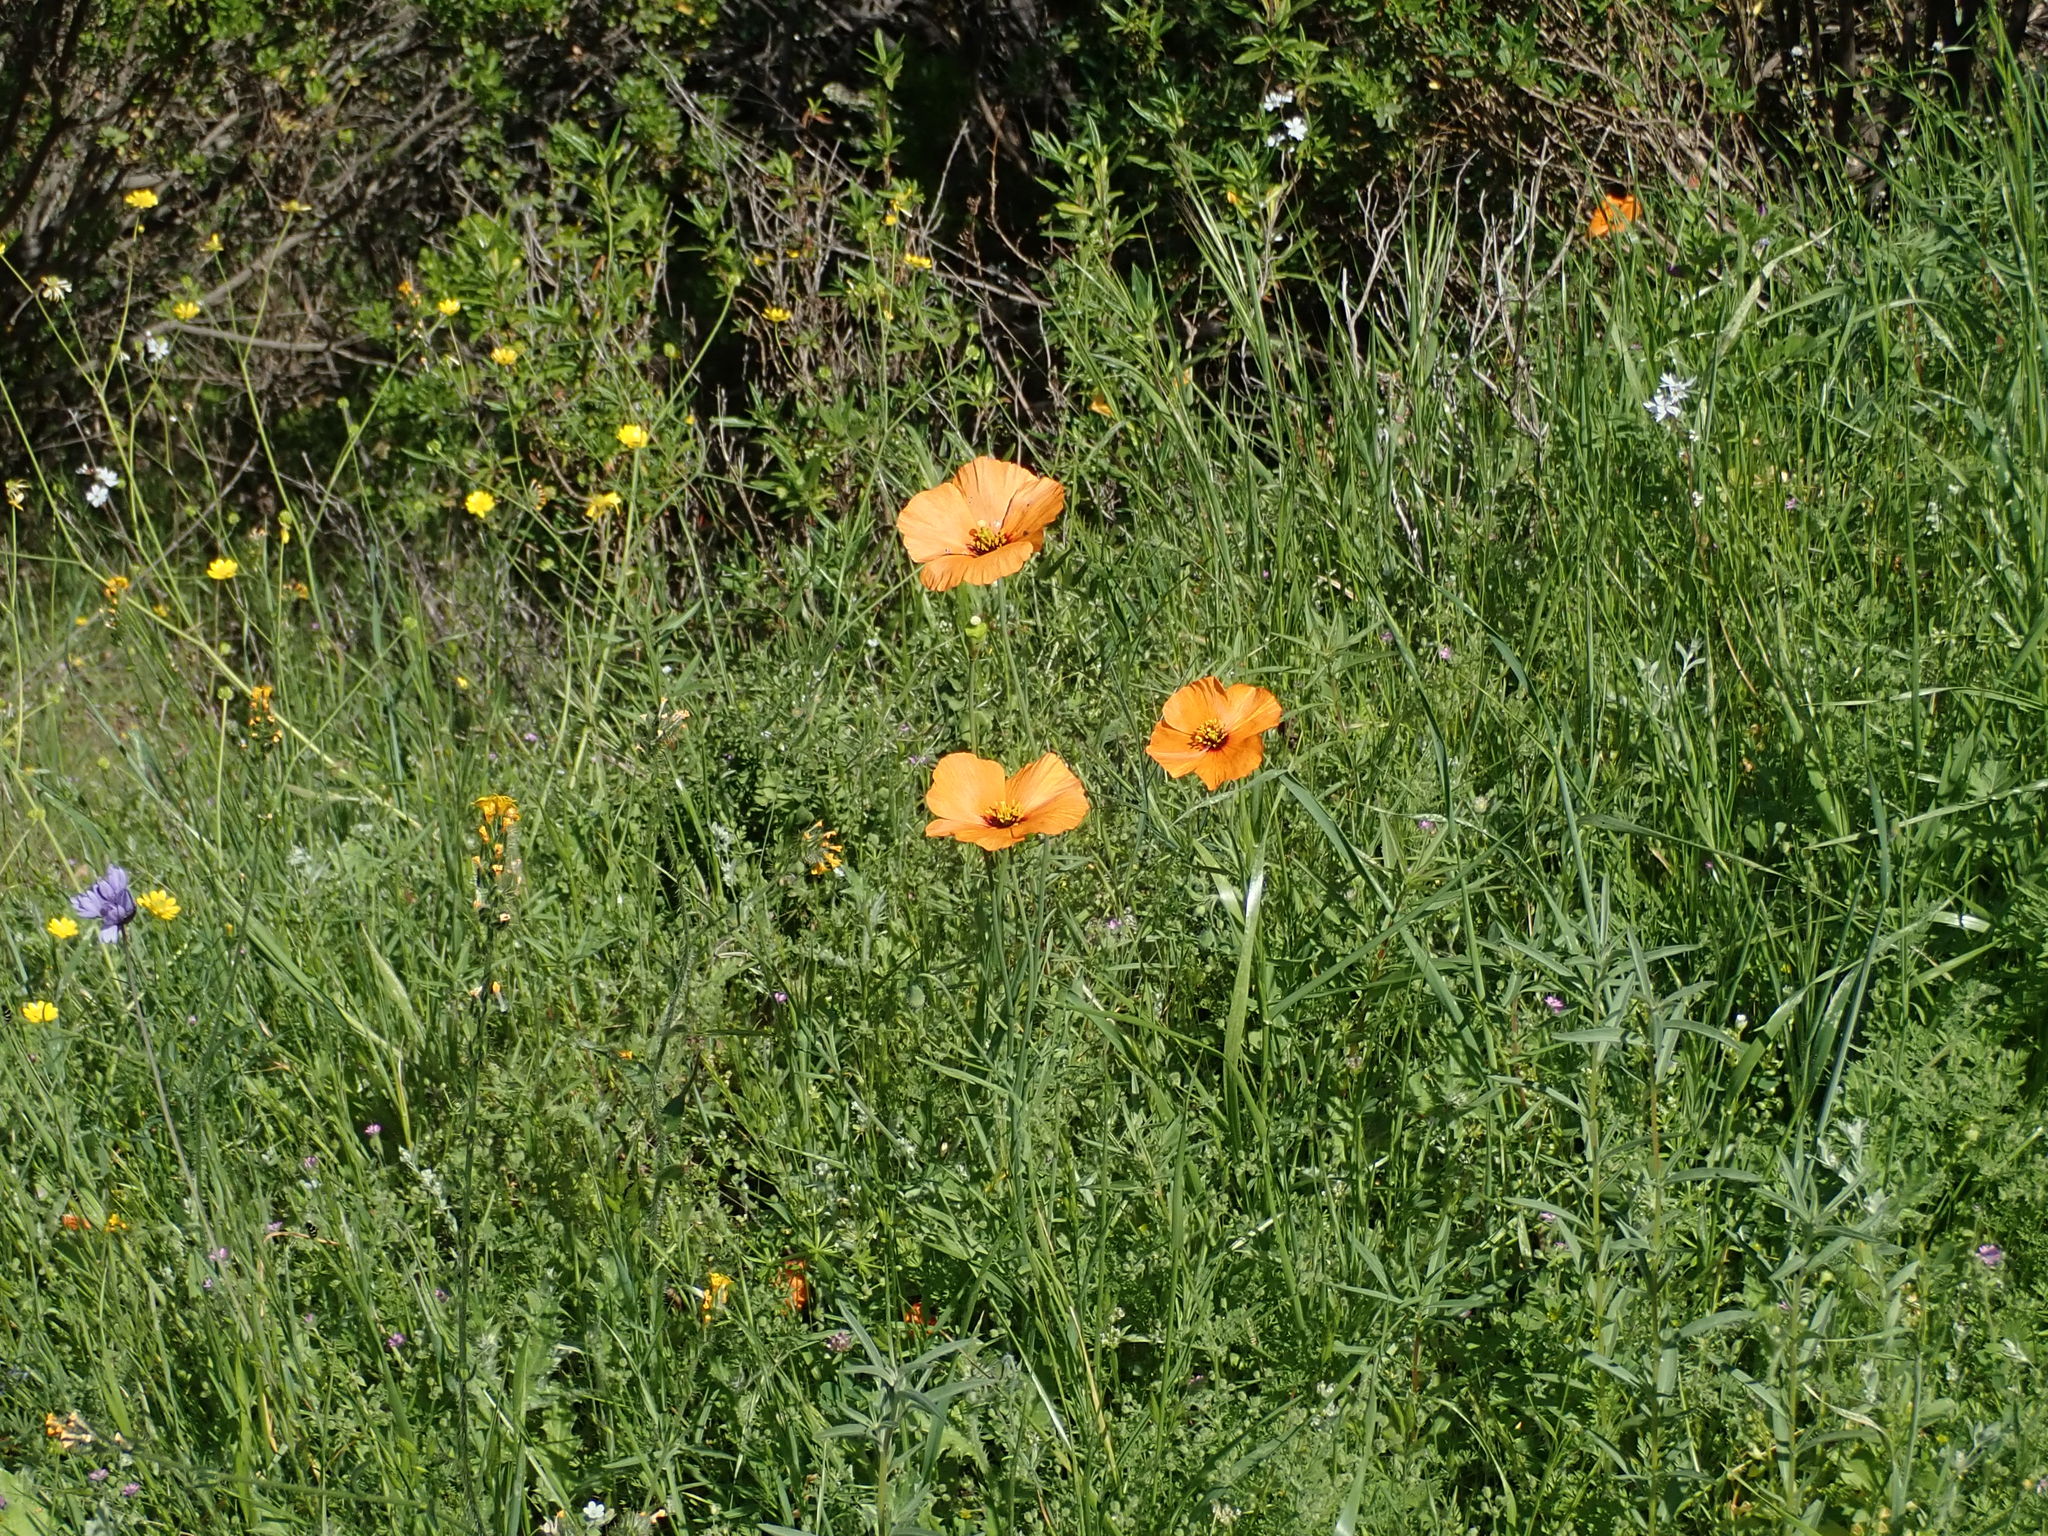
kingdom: Plantae
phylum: Tracheophyta
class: Magnoliopsida
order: Ranunculales
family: Papaveraceae
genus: Stylomecon
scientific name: Stylomecon heterophylla
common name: Flaming-poppy
